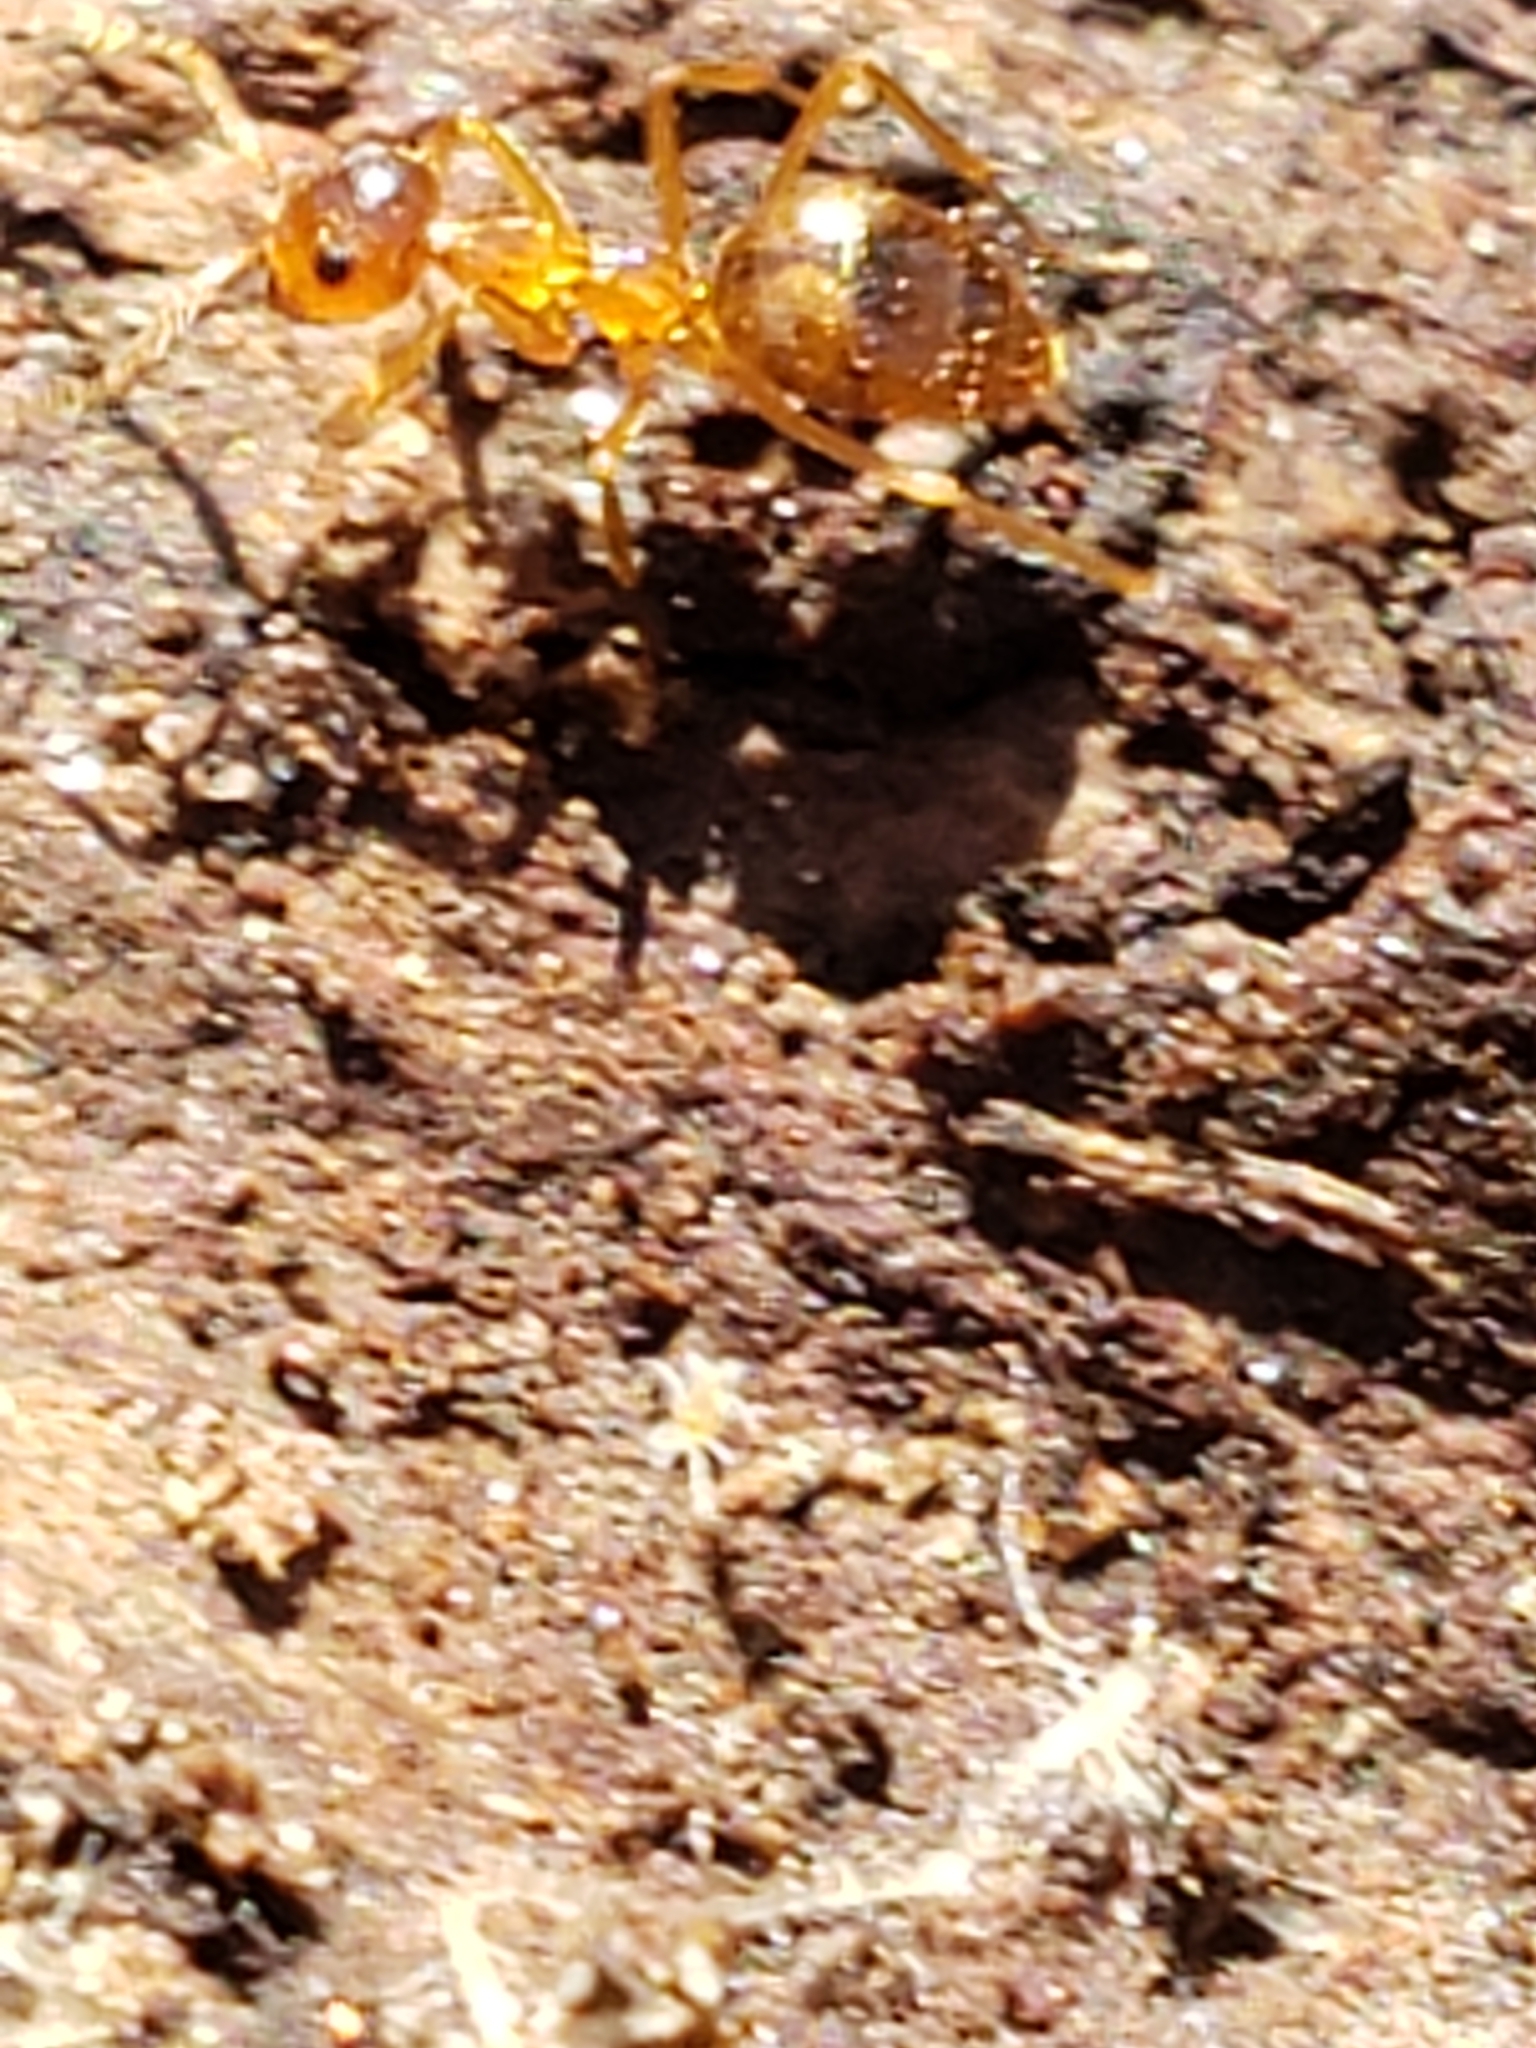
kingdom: Animalia
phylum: Arthropoda
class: Insecta
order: Hymenoptera
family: Formicidae
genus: Prenolepis
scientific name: Prenolepis imparis
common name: Small honey ant
